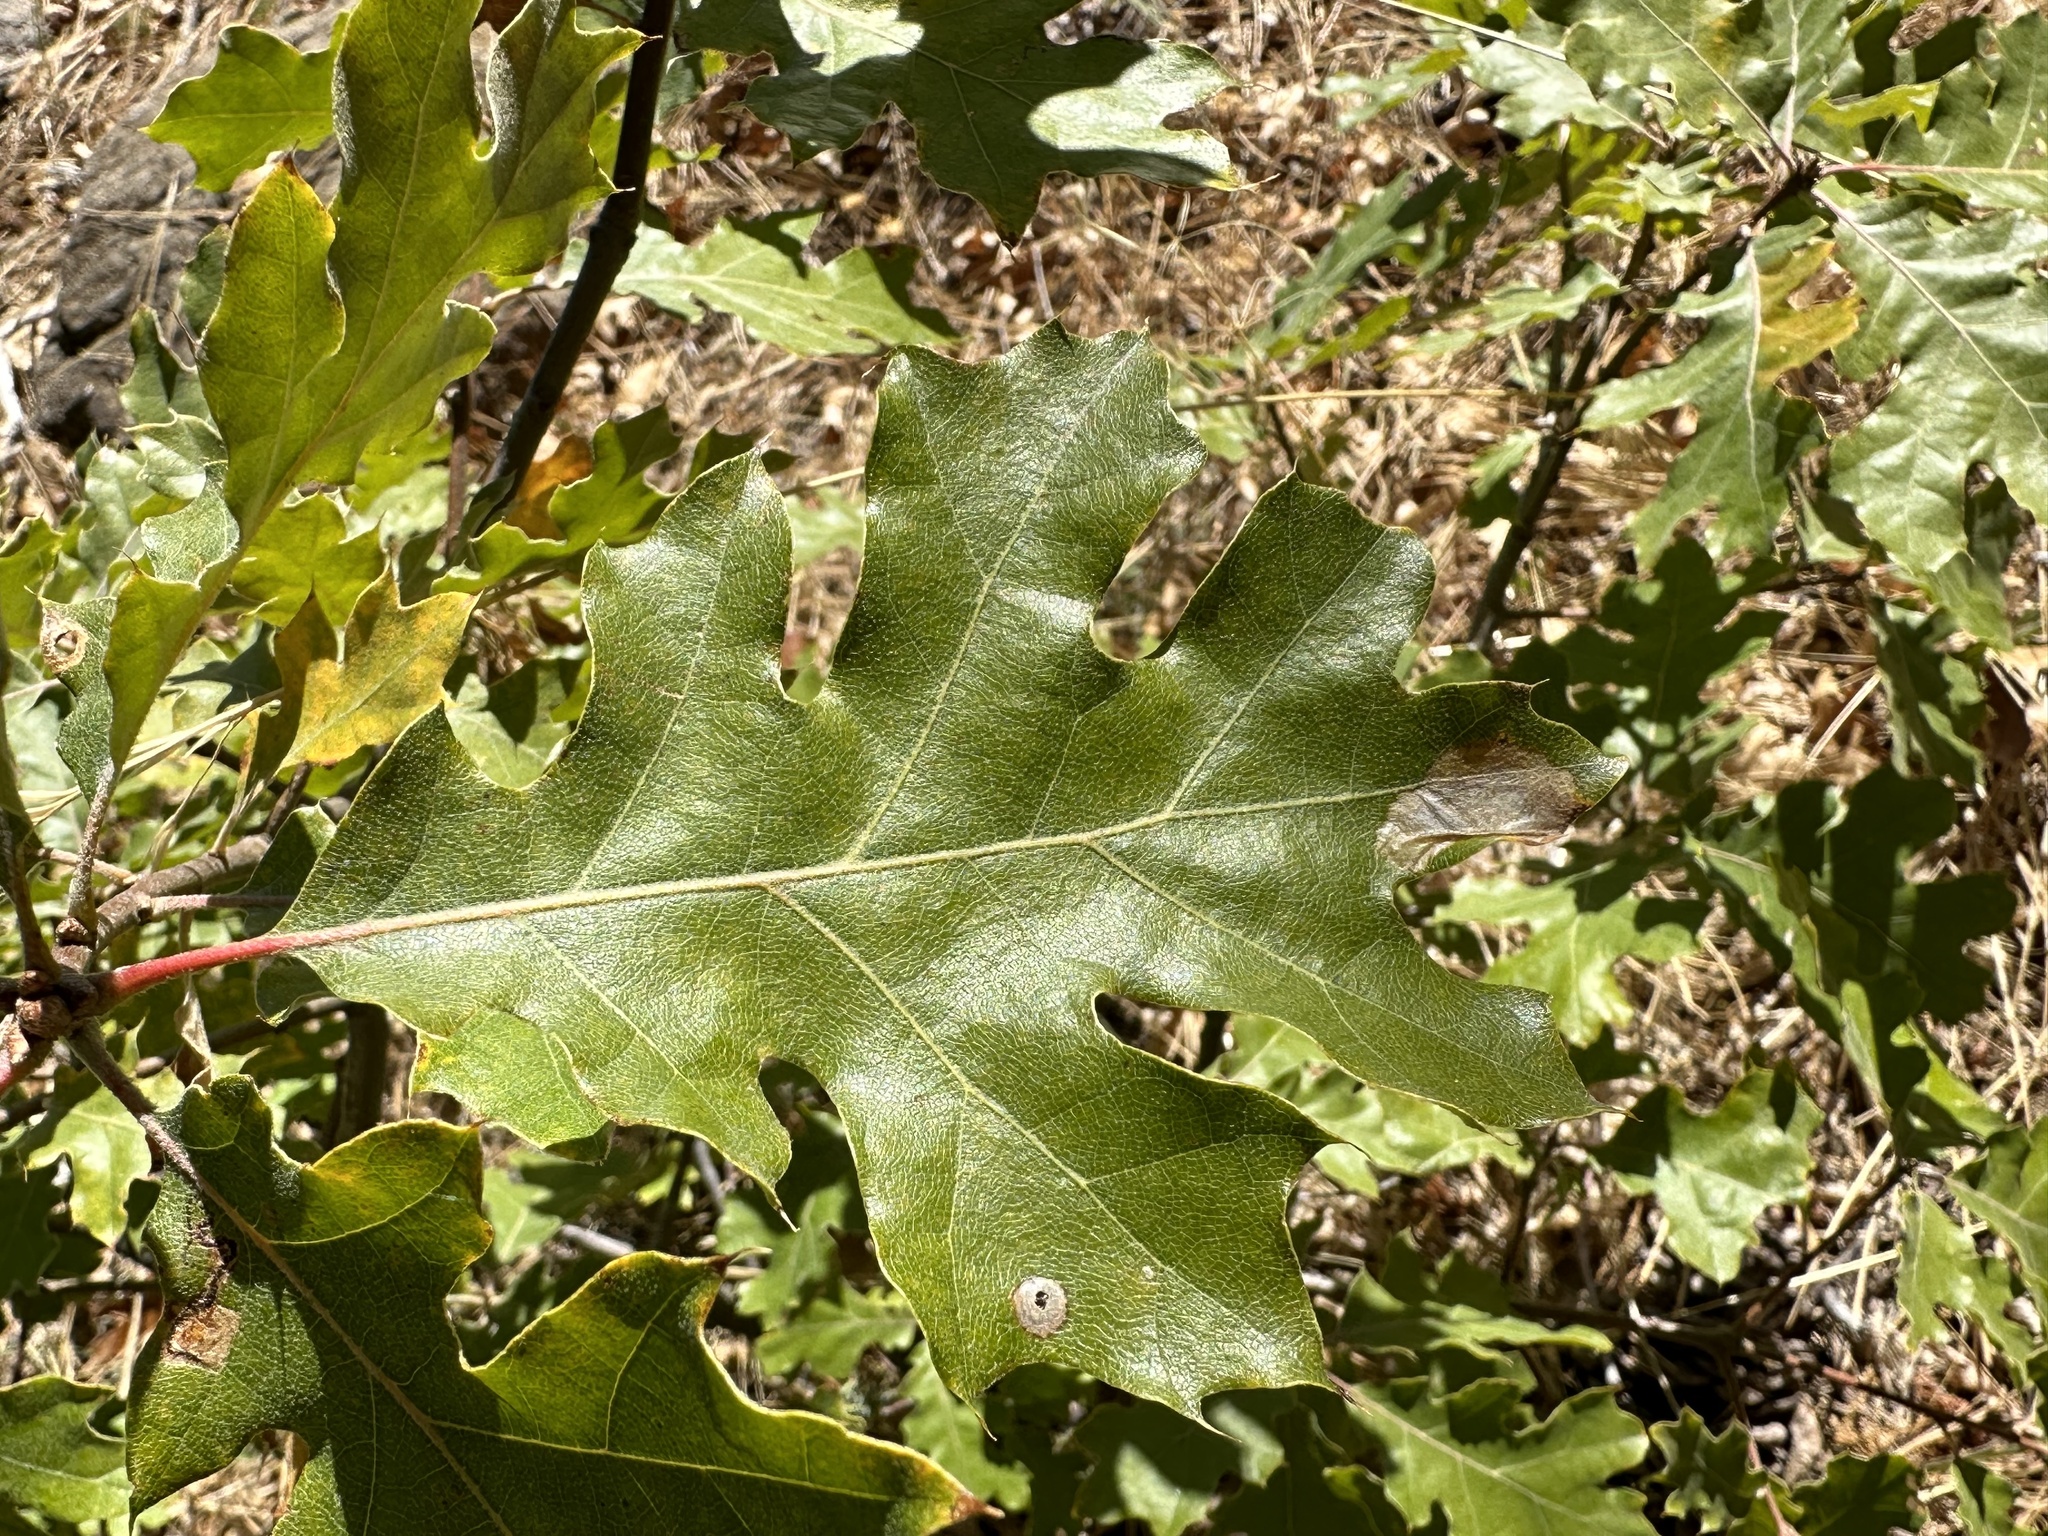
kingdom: Plantae
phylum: Tracheophyta
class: Magnoliopsida
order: Fagales
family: Fagaceae
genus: Quercus
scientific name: Quercus kelloggii
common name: California black oak
